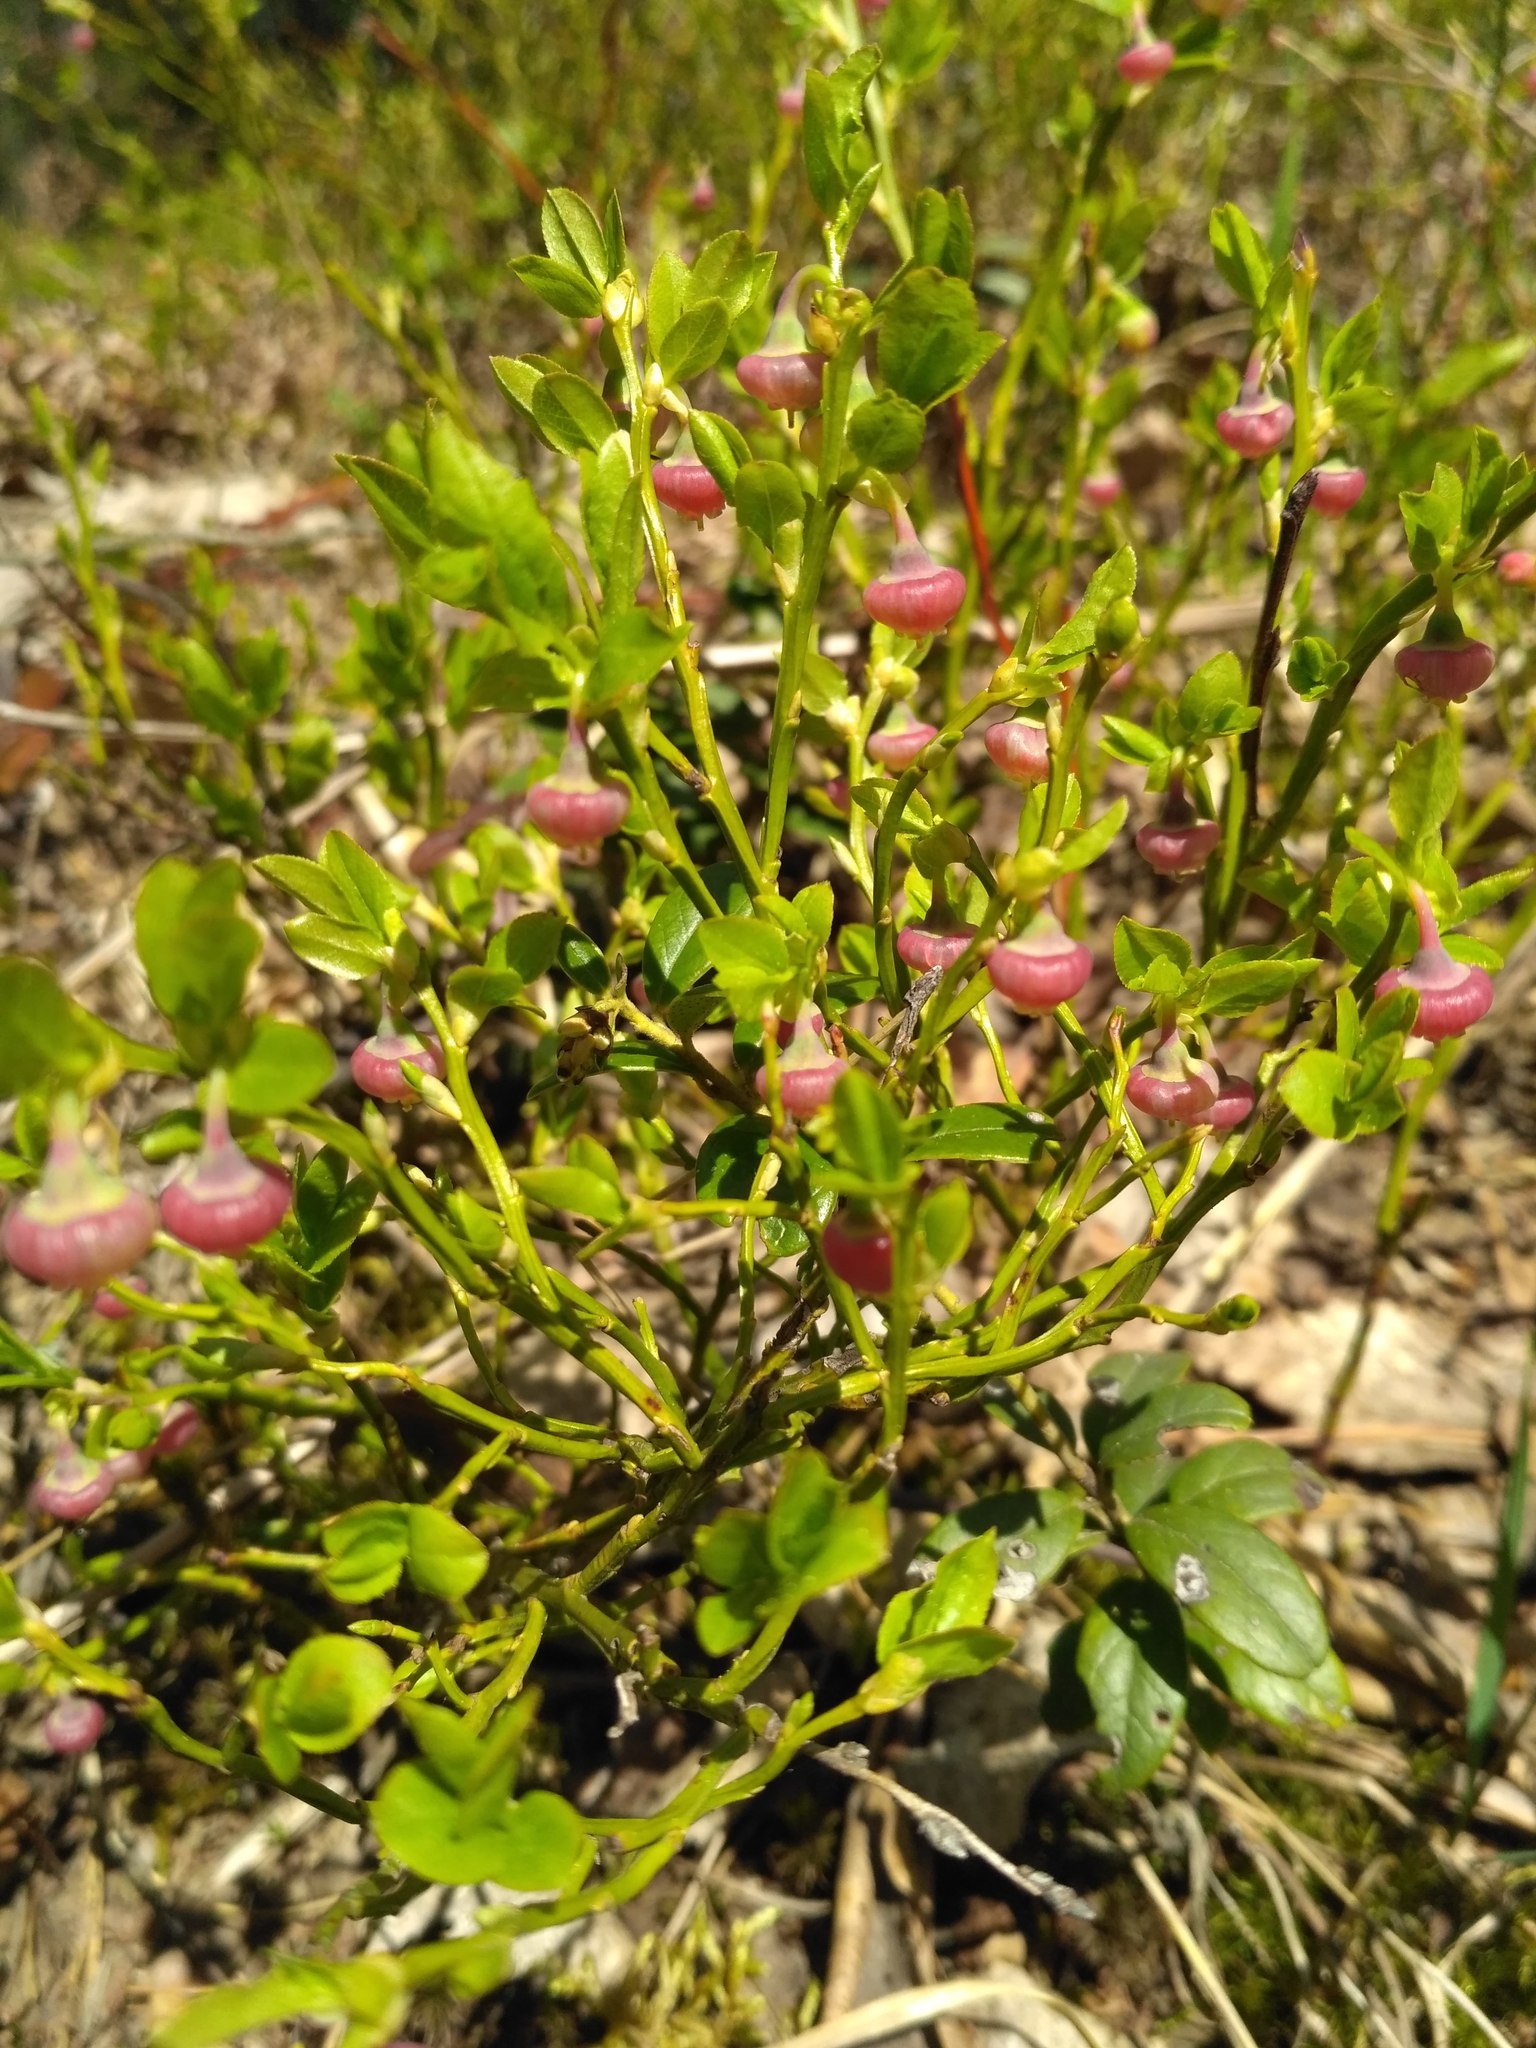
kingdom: Plantae
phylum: Tracheophyta
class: Magnoliopsida
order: Ericales
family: Ericaceae
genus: Vaccinium
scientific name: Vaccinium myrtillus
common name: Bilberry
